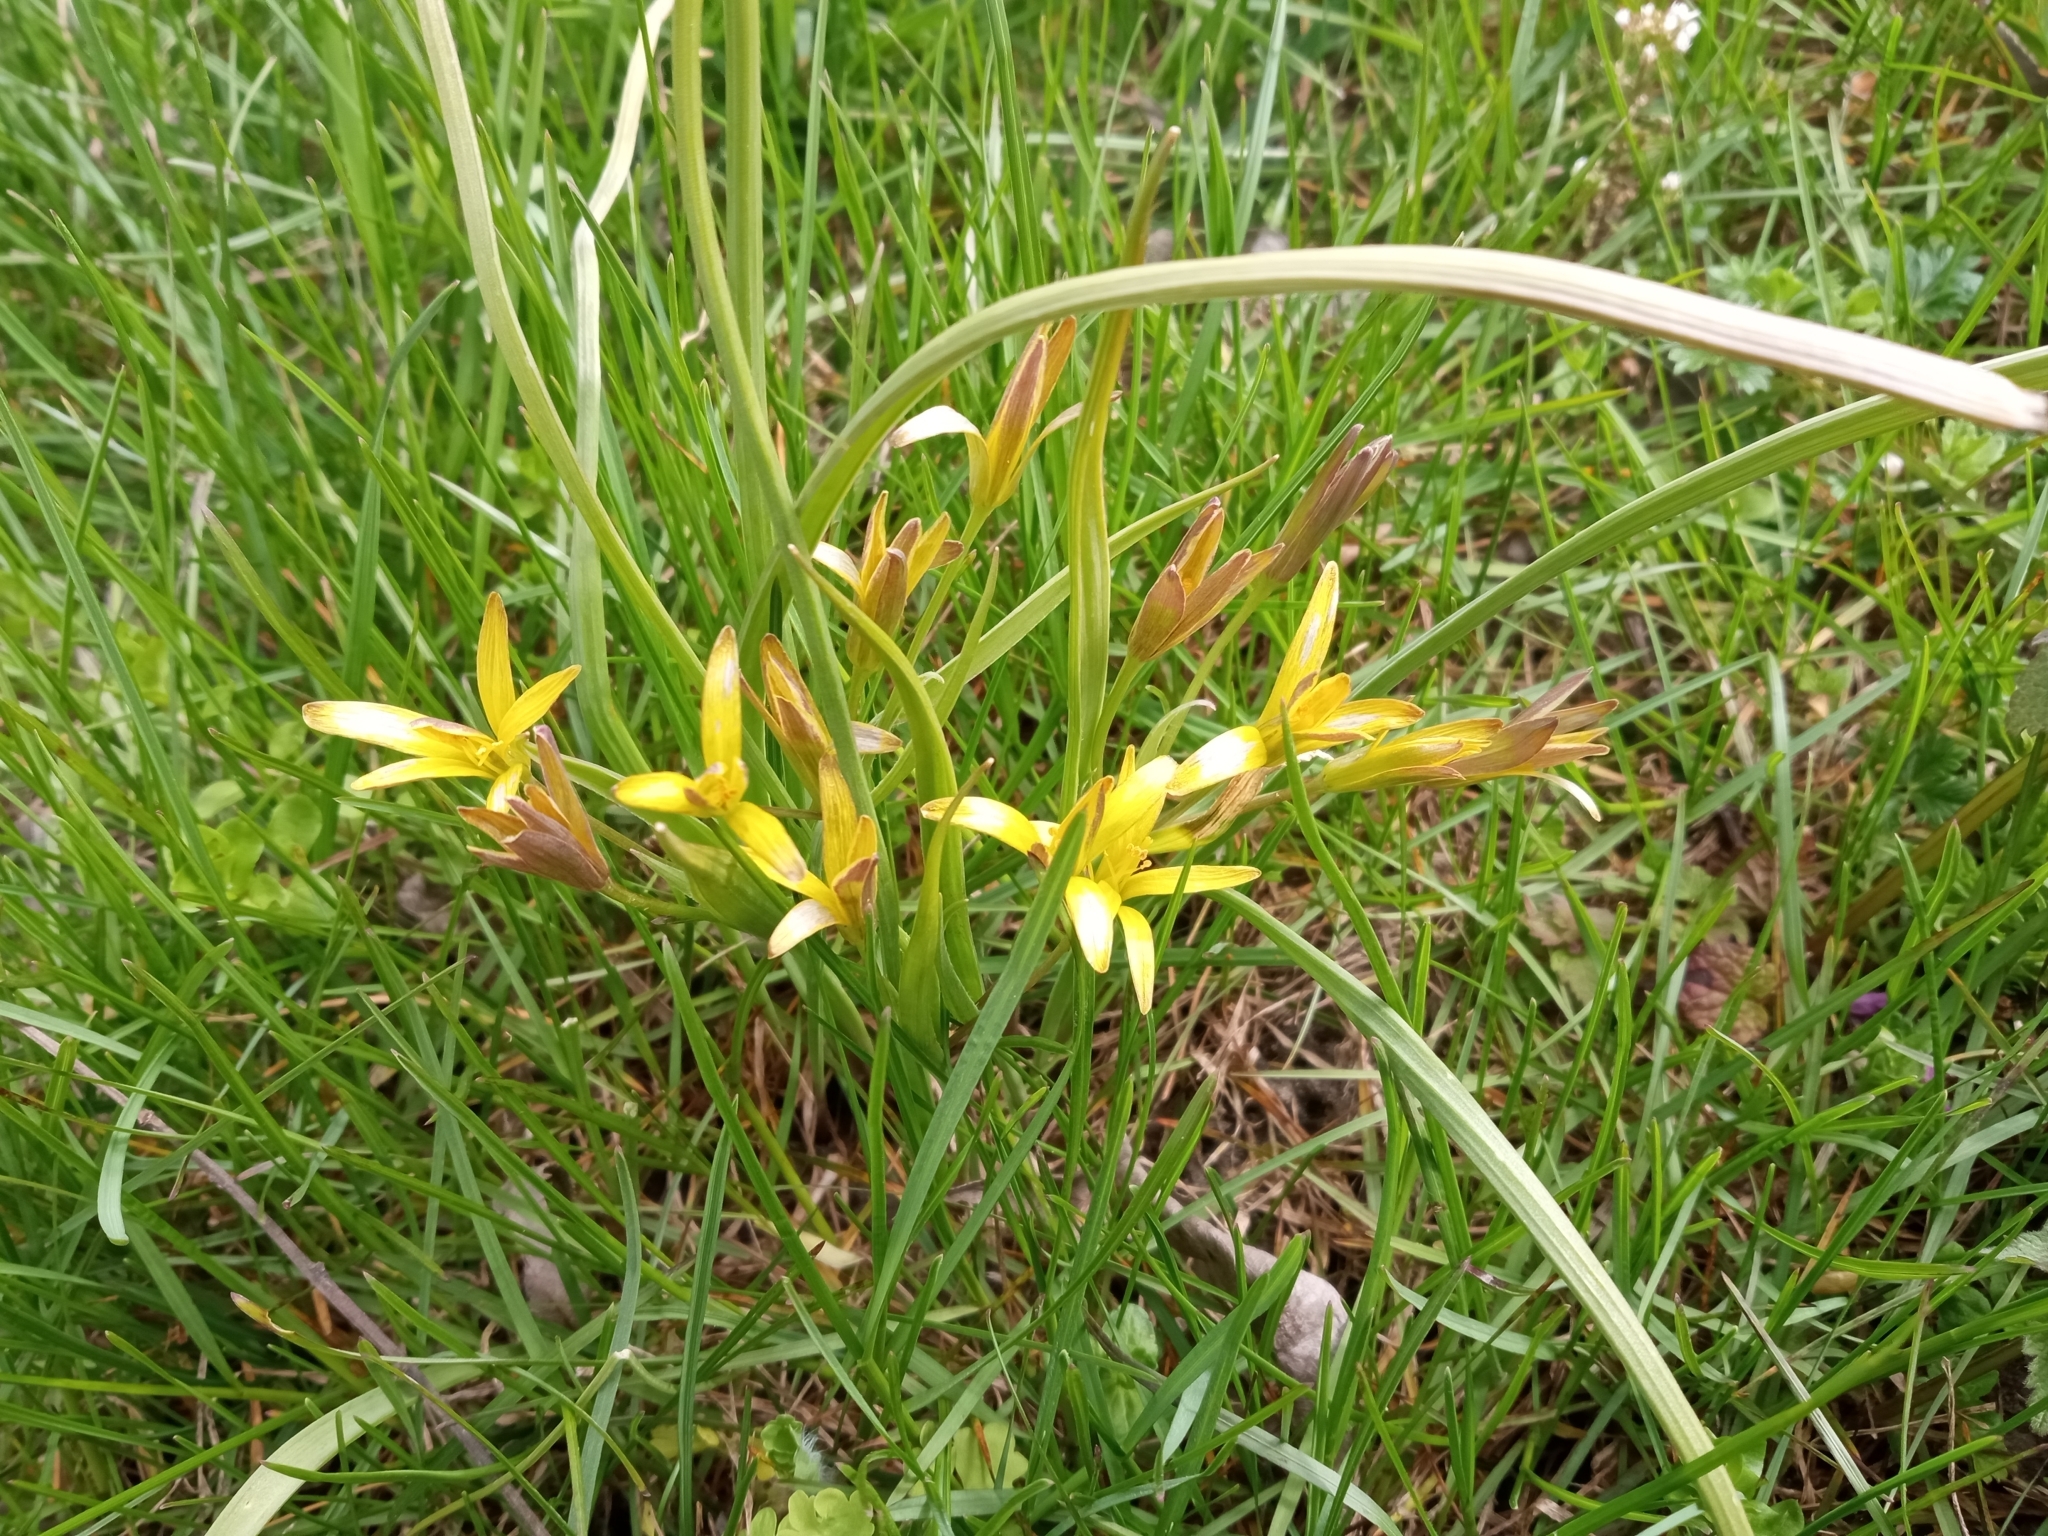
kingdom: Plantae
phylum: Tracheophyta
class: Liliopsida
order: Liliales
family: Liliaceae
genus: Gagea
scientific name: Gagea pratensis
